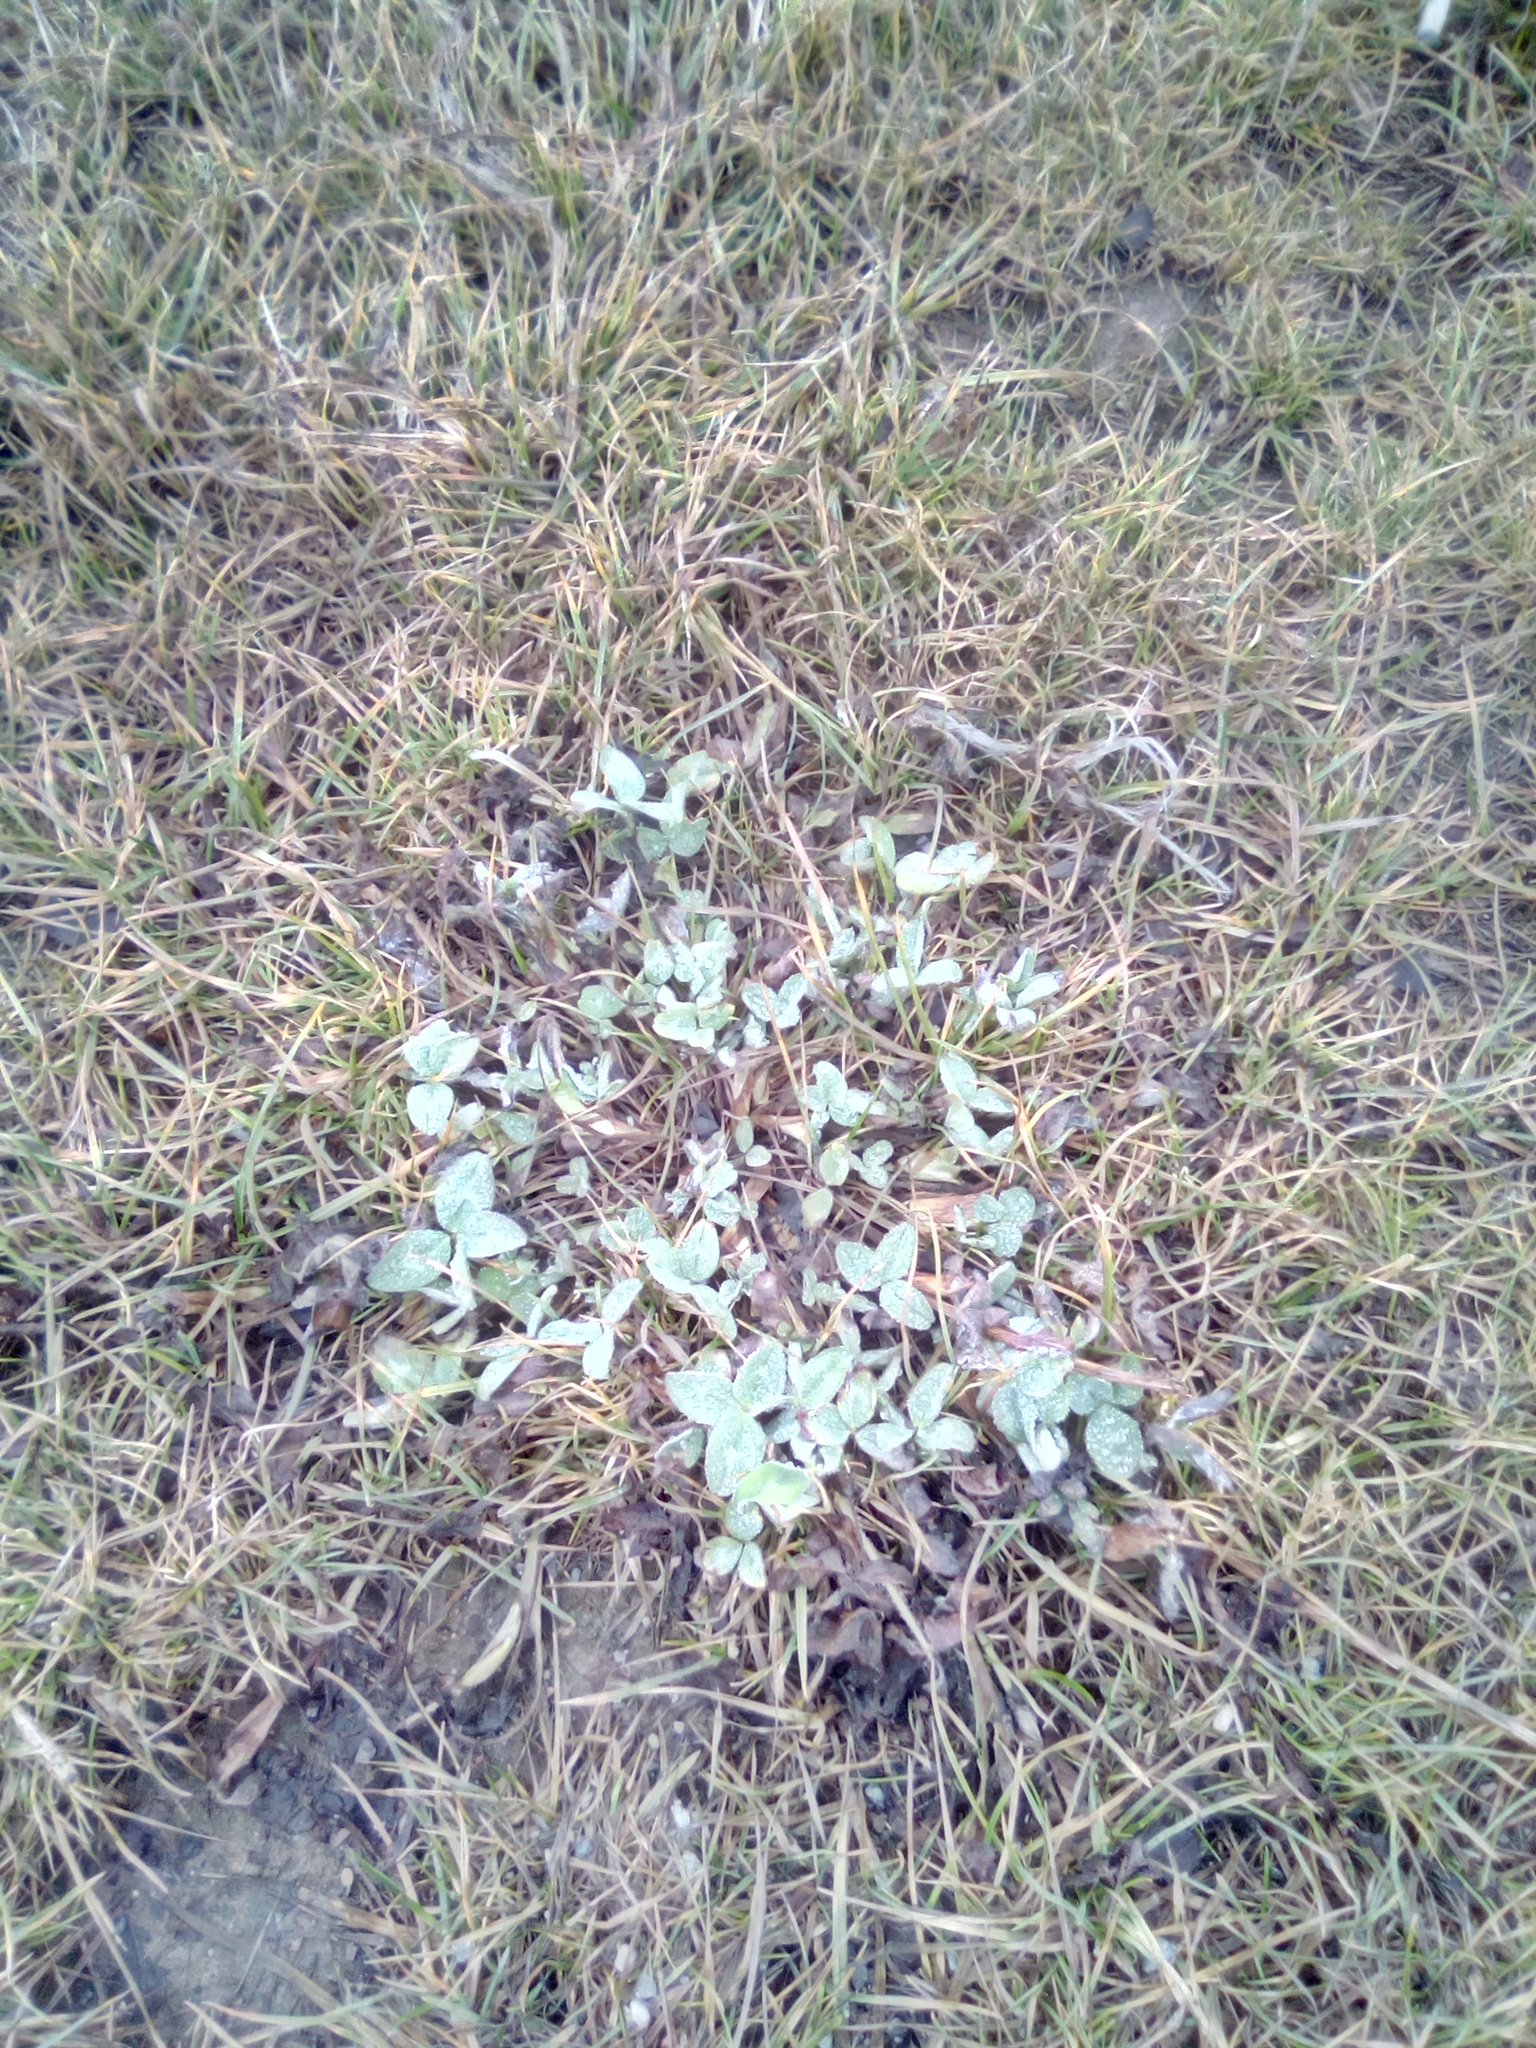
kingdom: Plantae
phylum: Tracheophyta
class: Magnoliopsida
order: Fabales
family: Fabaceae
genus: Trifolium
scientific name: Trifolium pratense
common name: Red clover
